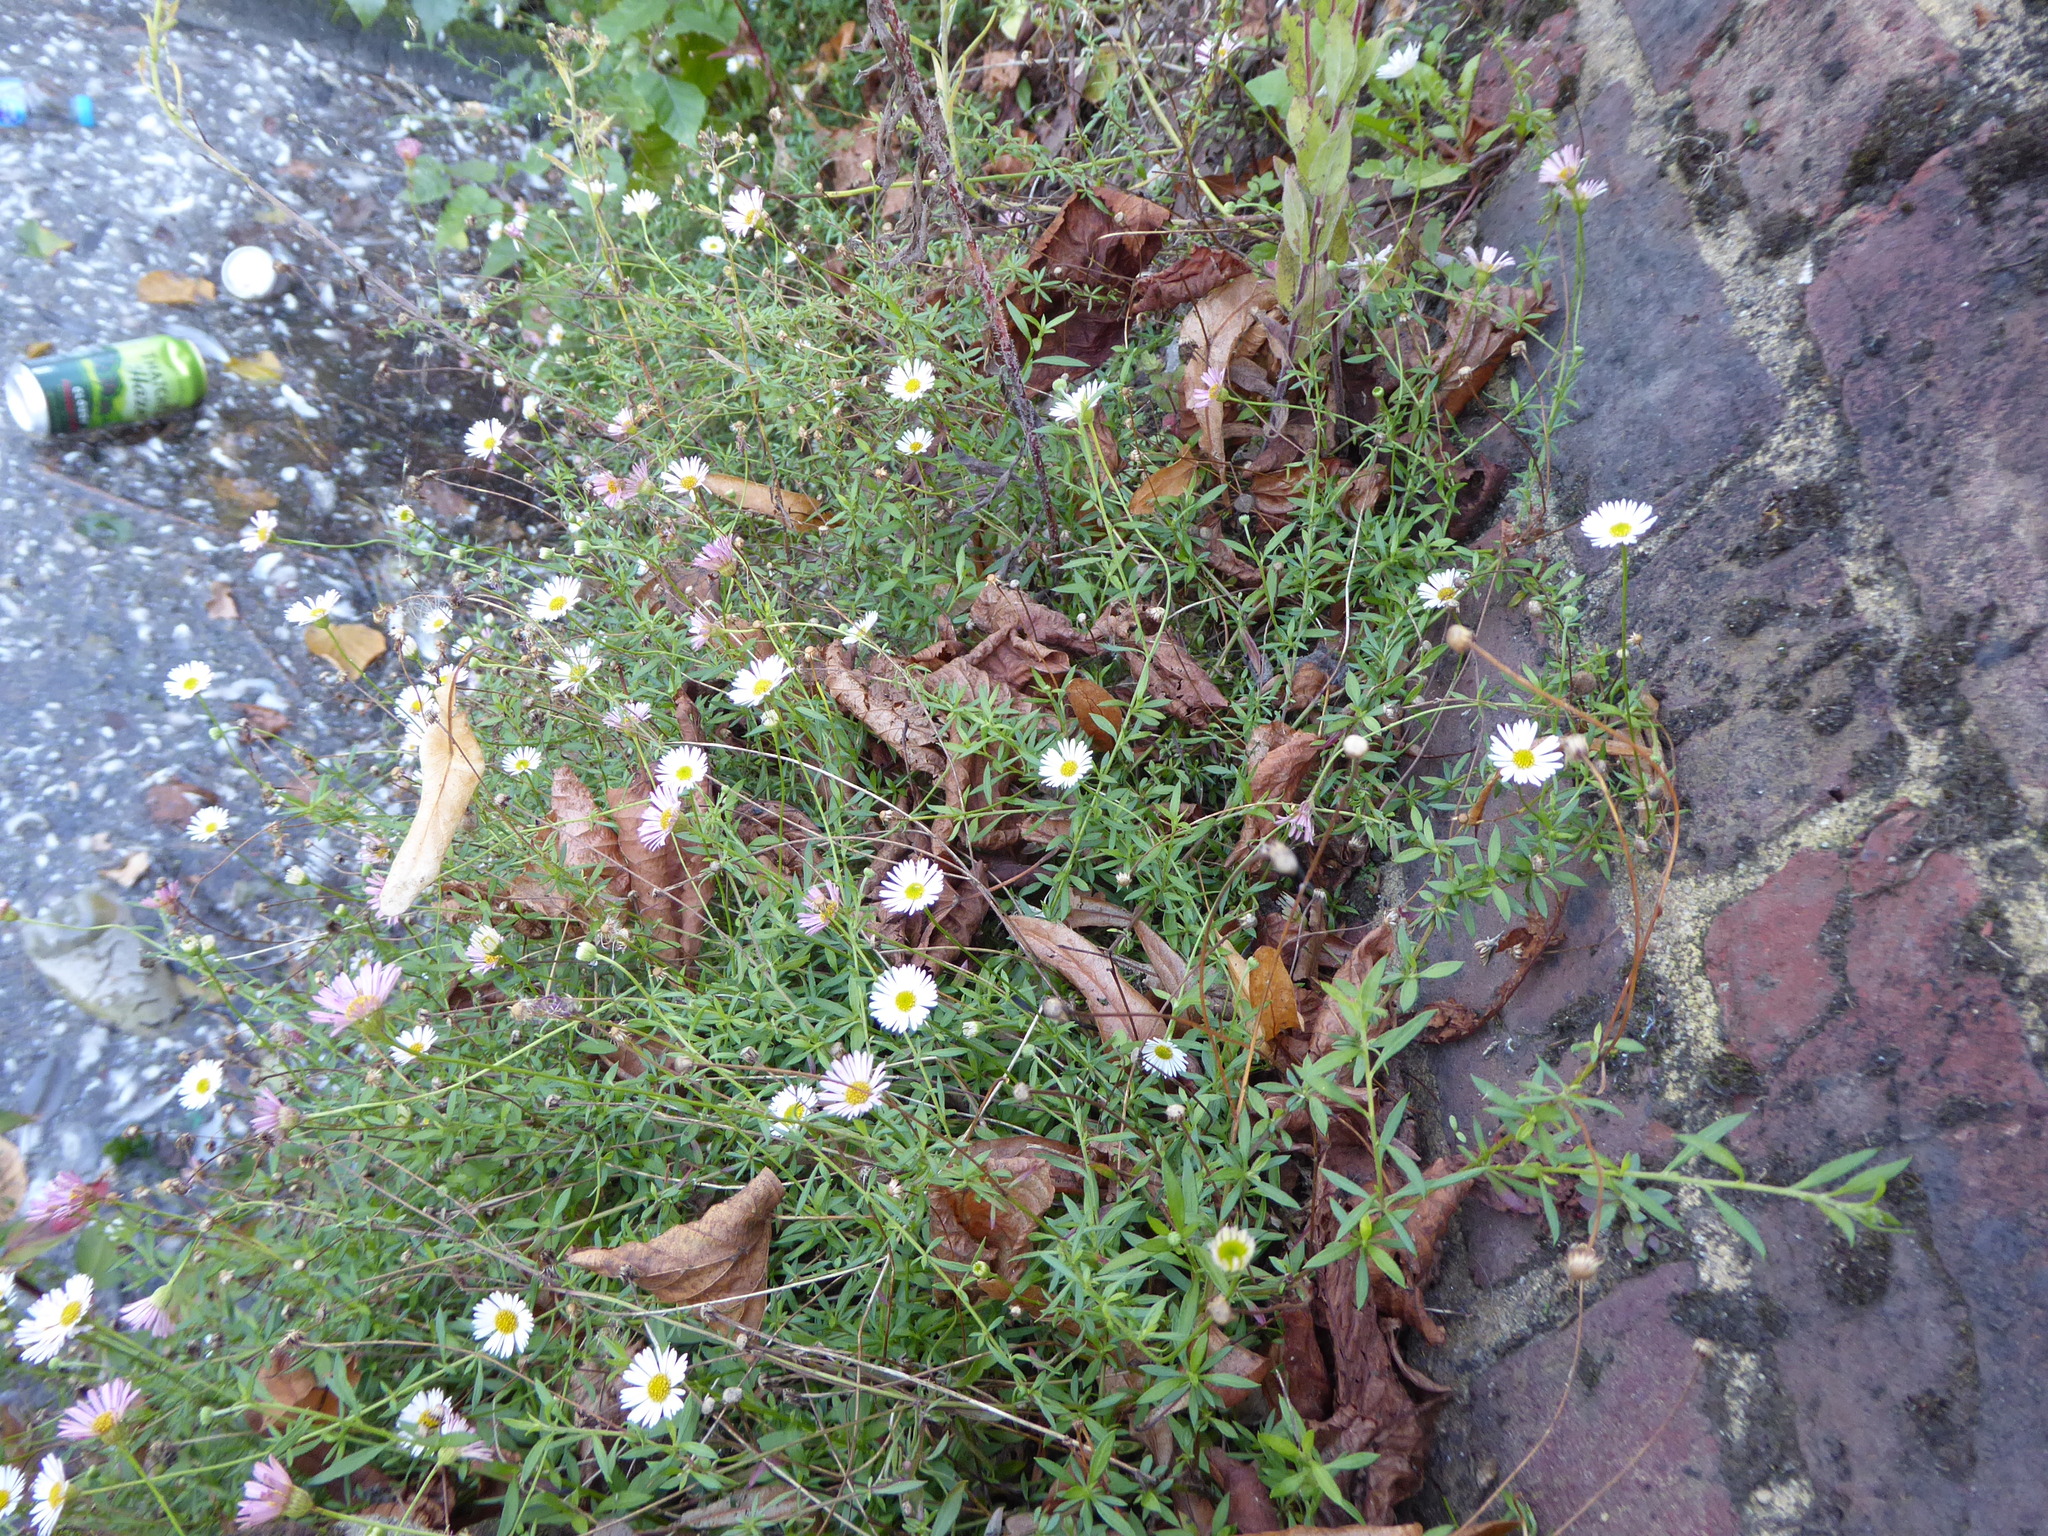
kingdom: Plantae
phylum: Tracheophyta
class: Magnoliopsida
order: Asterales
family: Asteraceae
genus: Erigeron
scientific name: Erigeron karvinskianus
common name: Mexican fleabane
